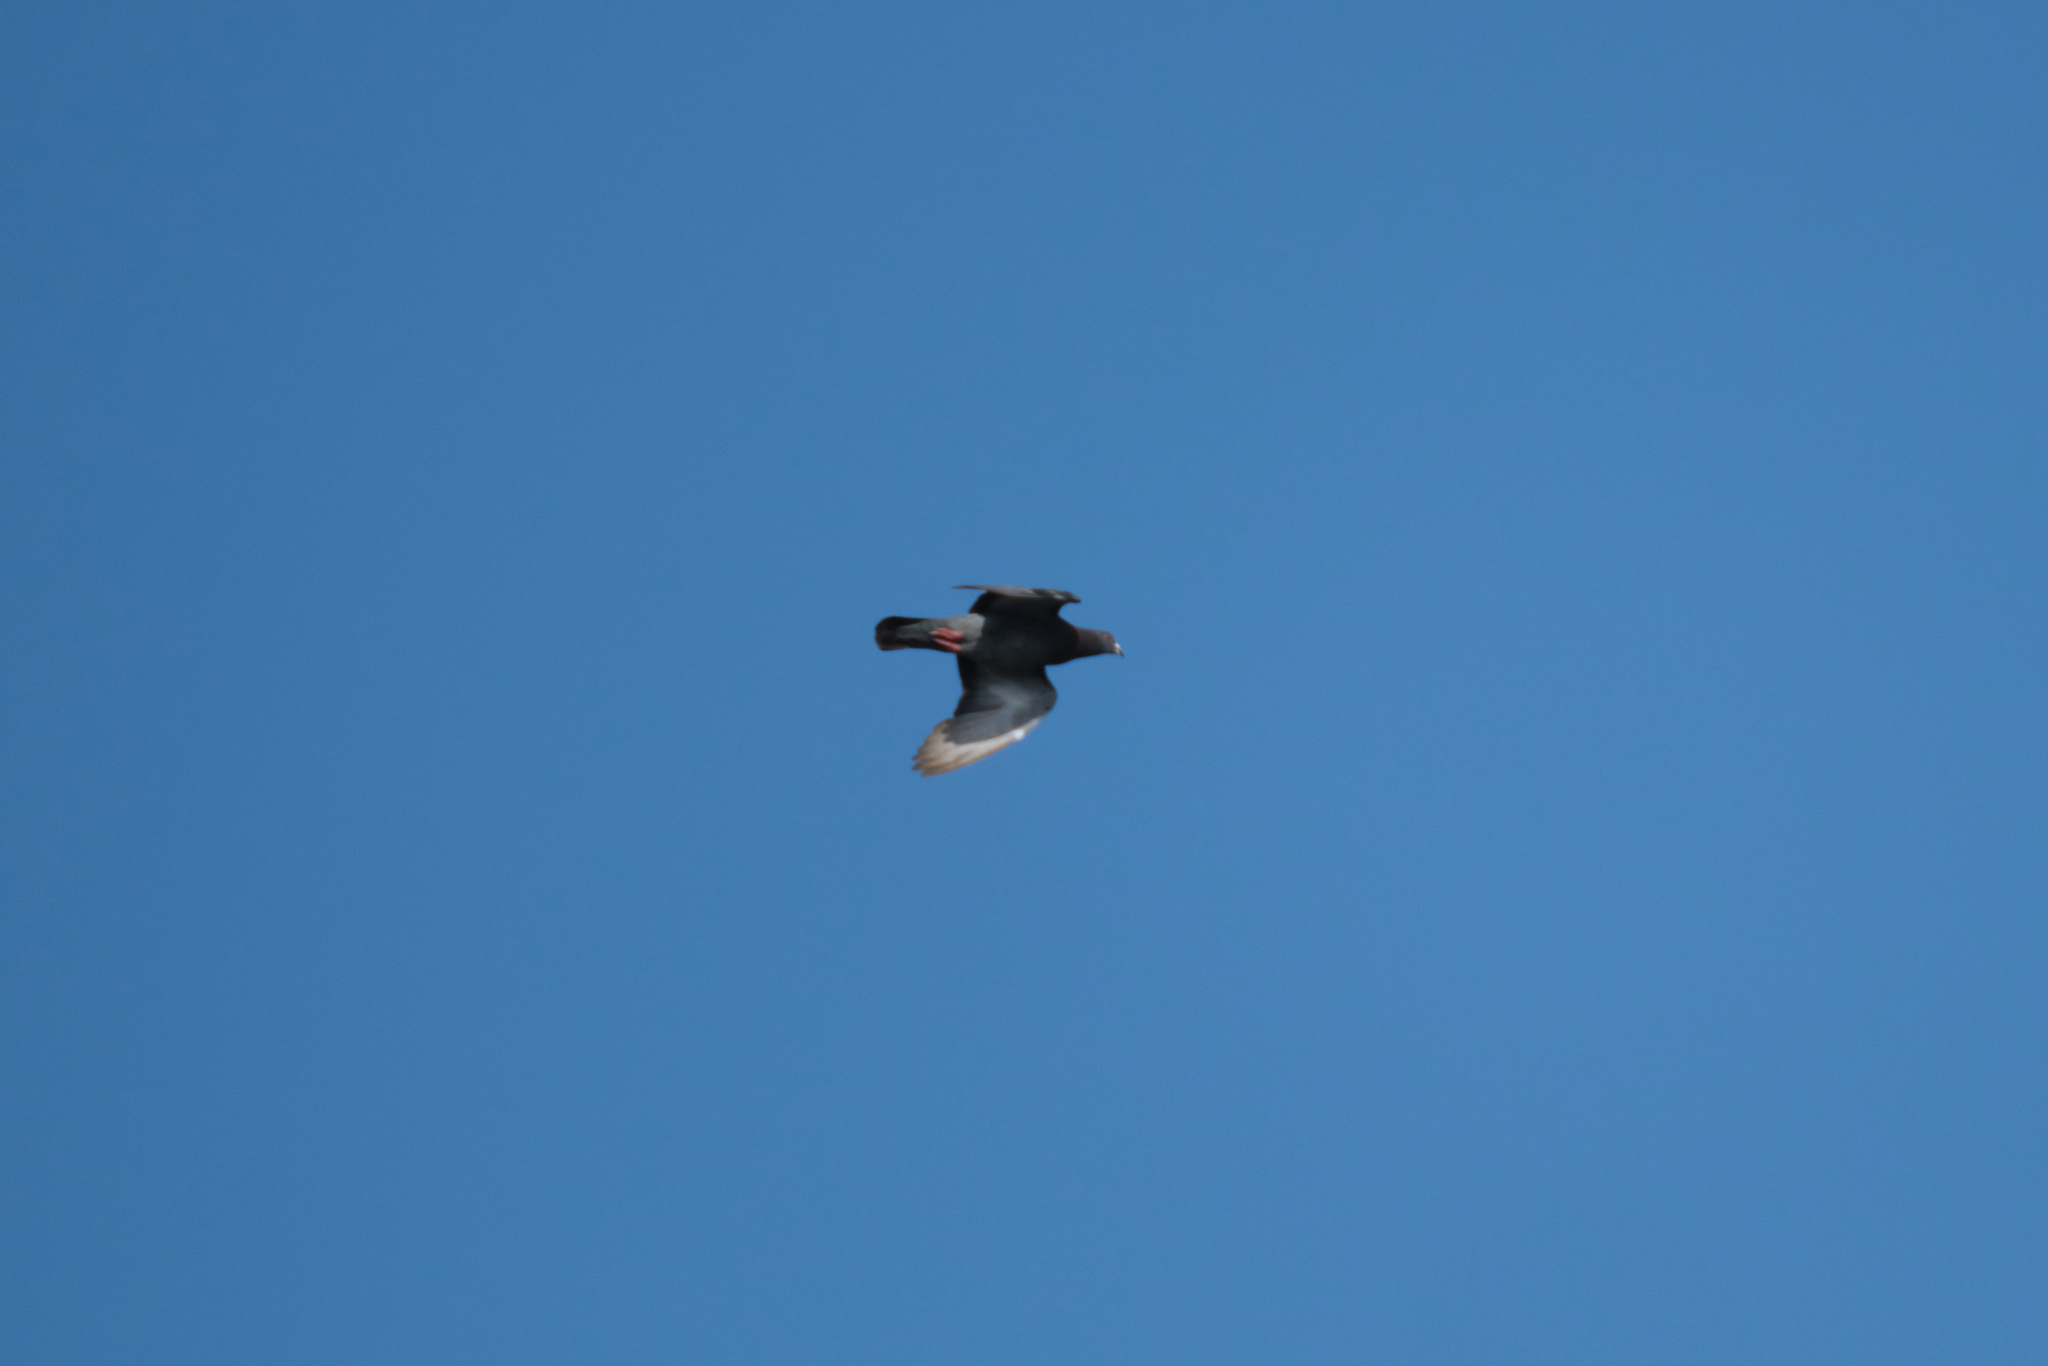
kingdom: Animalia
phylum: Chordata
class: Aves
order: Columbiformes
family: Columbidae
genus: Columba
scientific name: Columba livia
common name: Rock pigeon
